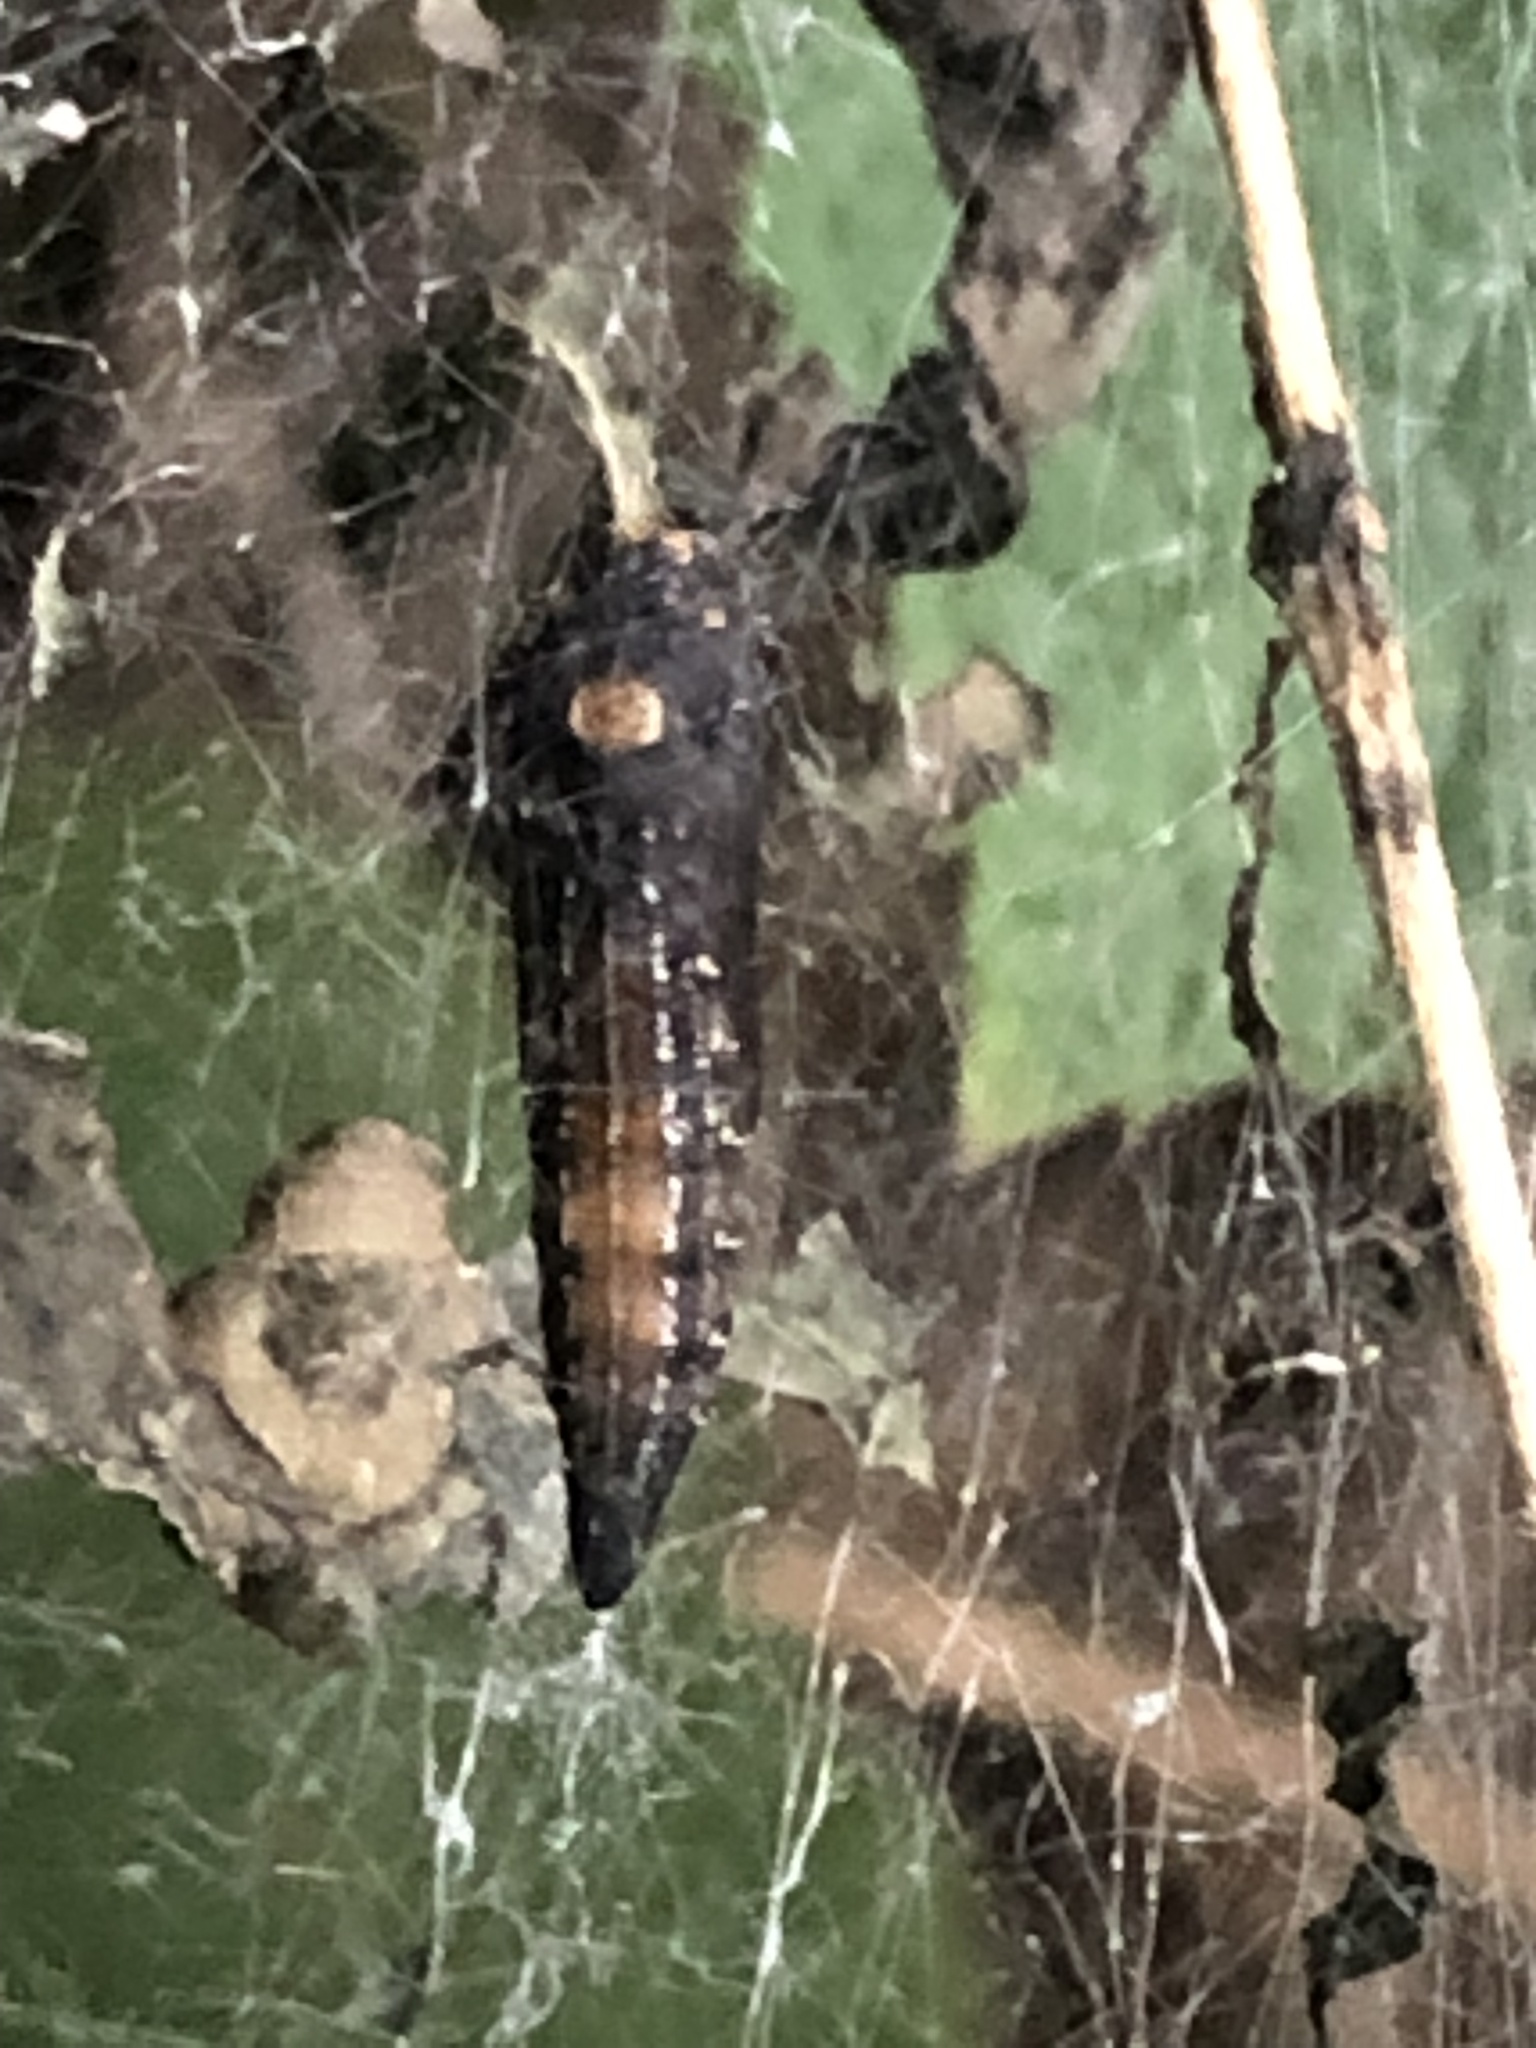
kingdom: Animalia
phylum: Arthropoda
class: Insecta
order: Lepidoptera
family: Attevidae
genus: Atteva
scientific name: Atteva punctella
